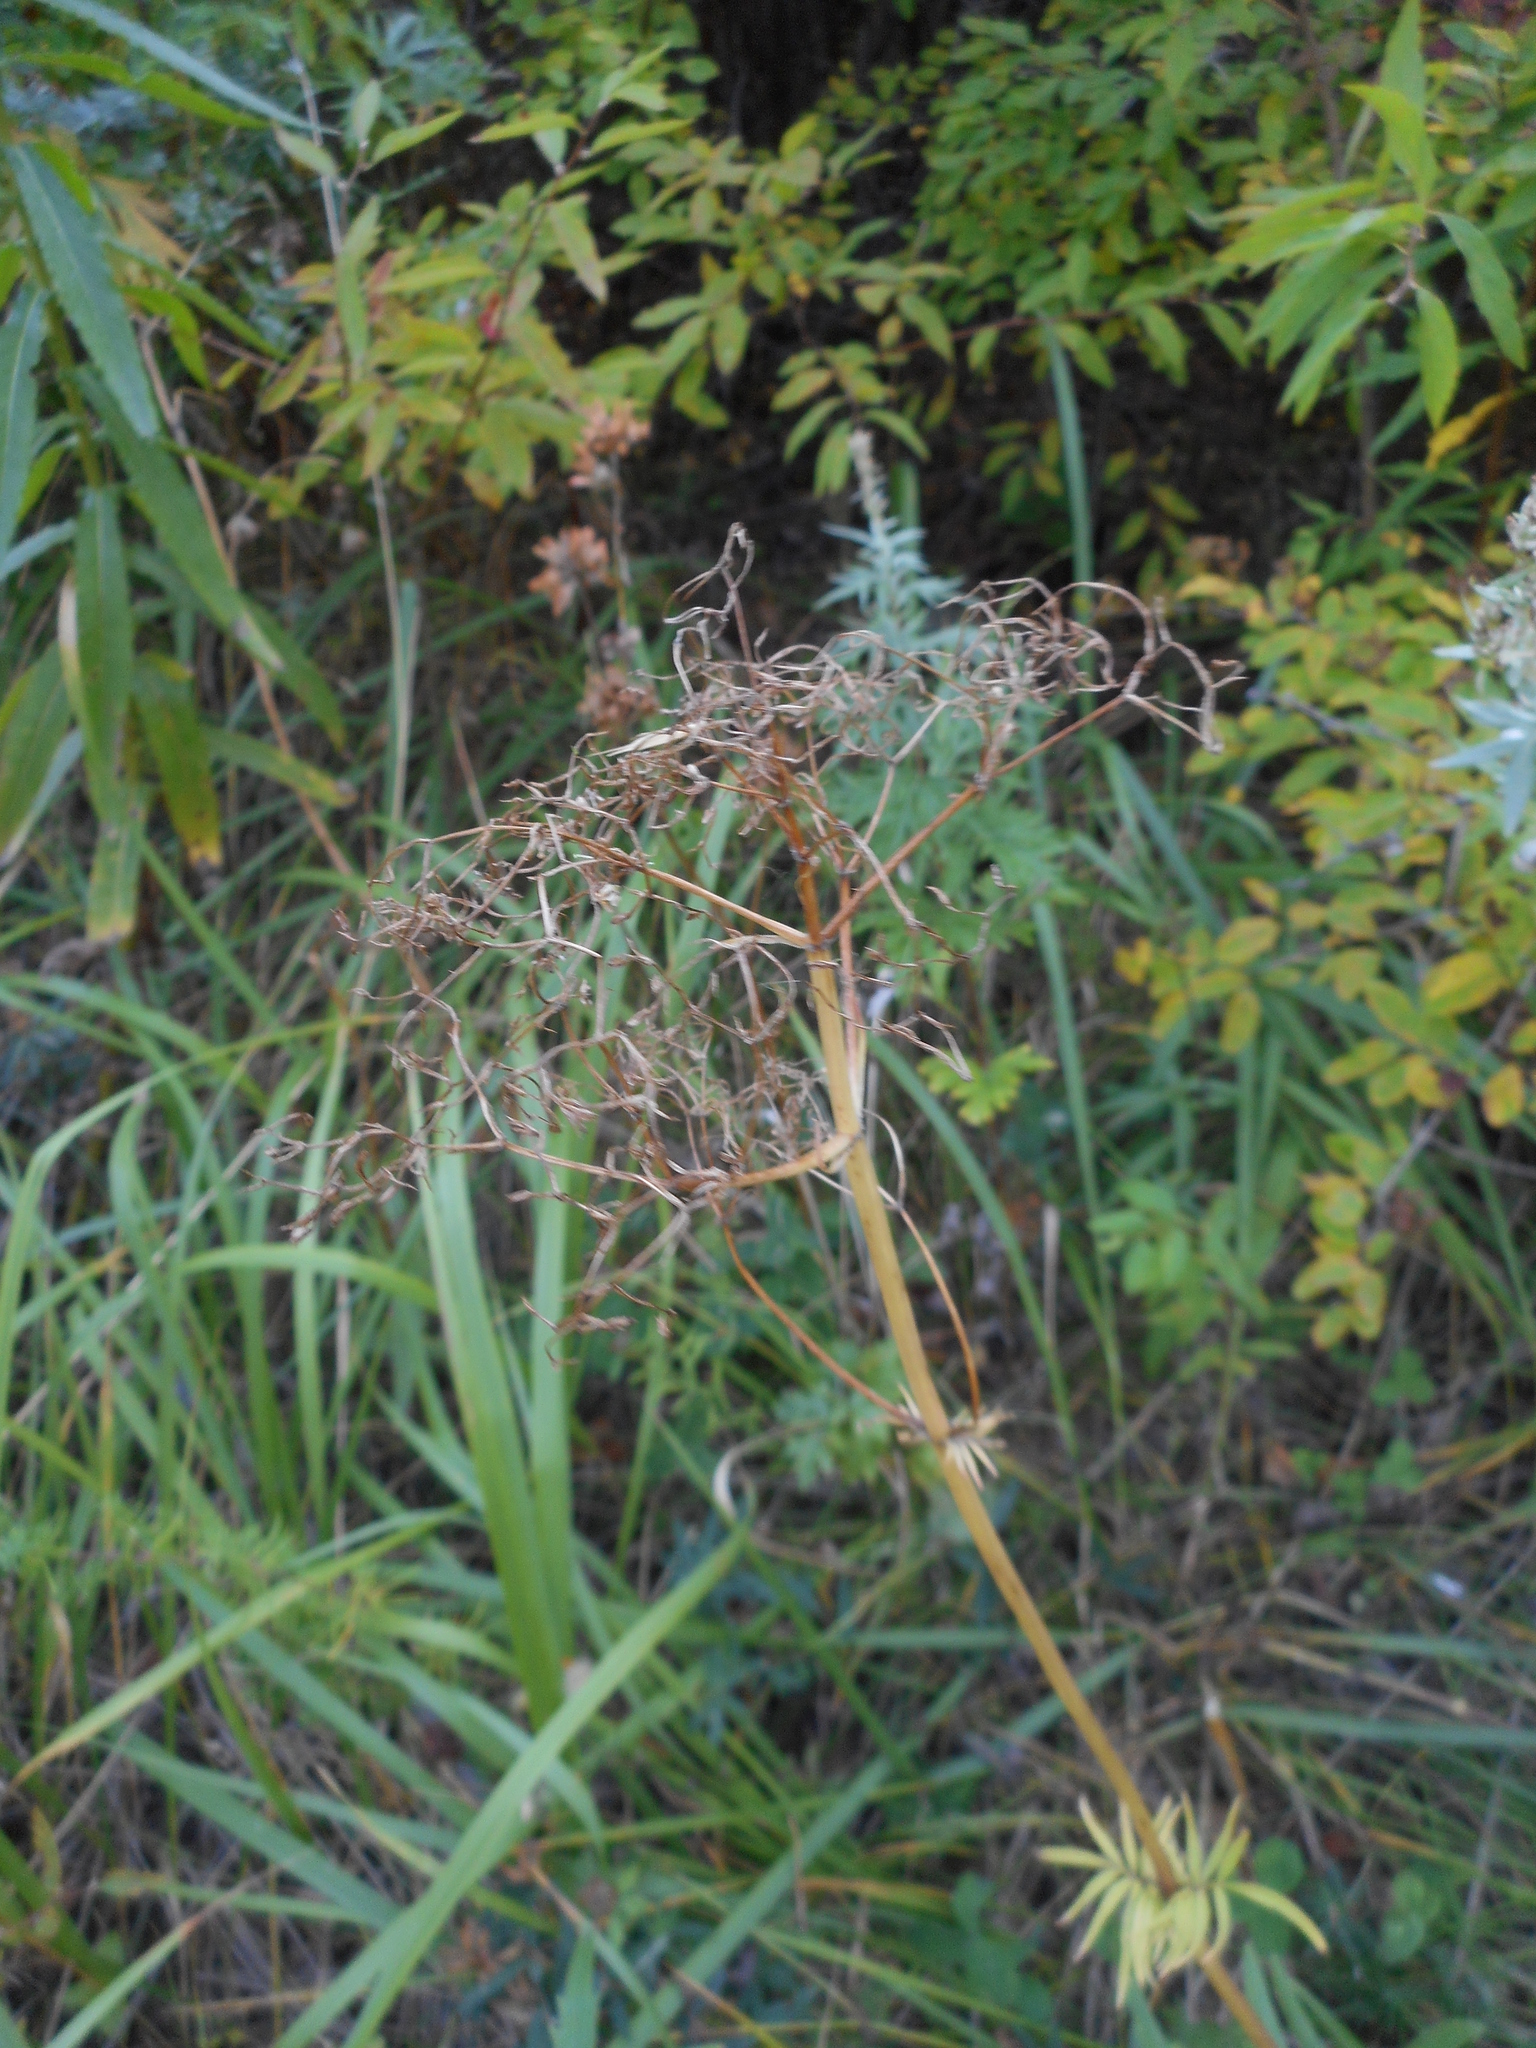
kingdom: Plantae
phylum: Tracheophyta
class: Magnoliopsida
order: Dipsacales
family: Caprifoliaceae
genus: Valeriana
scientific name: Valeriana alternifolia
